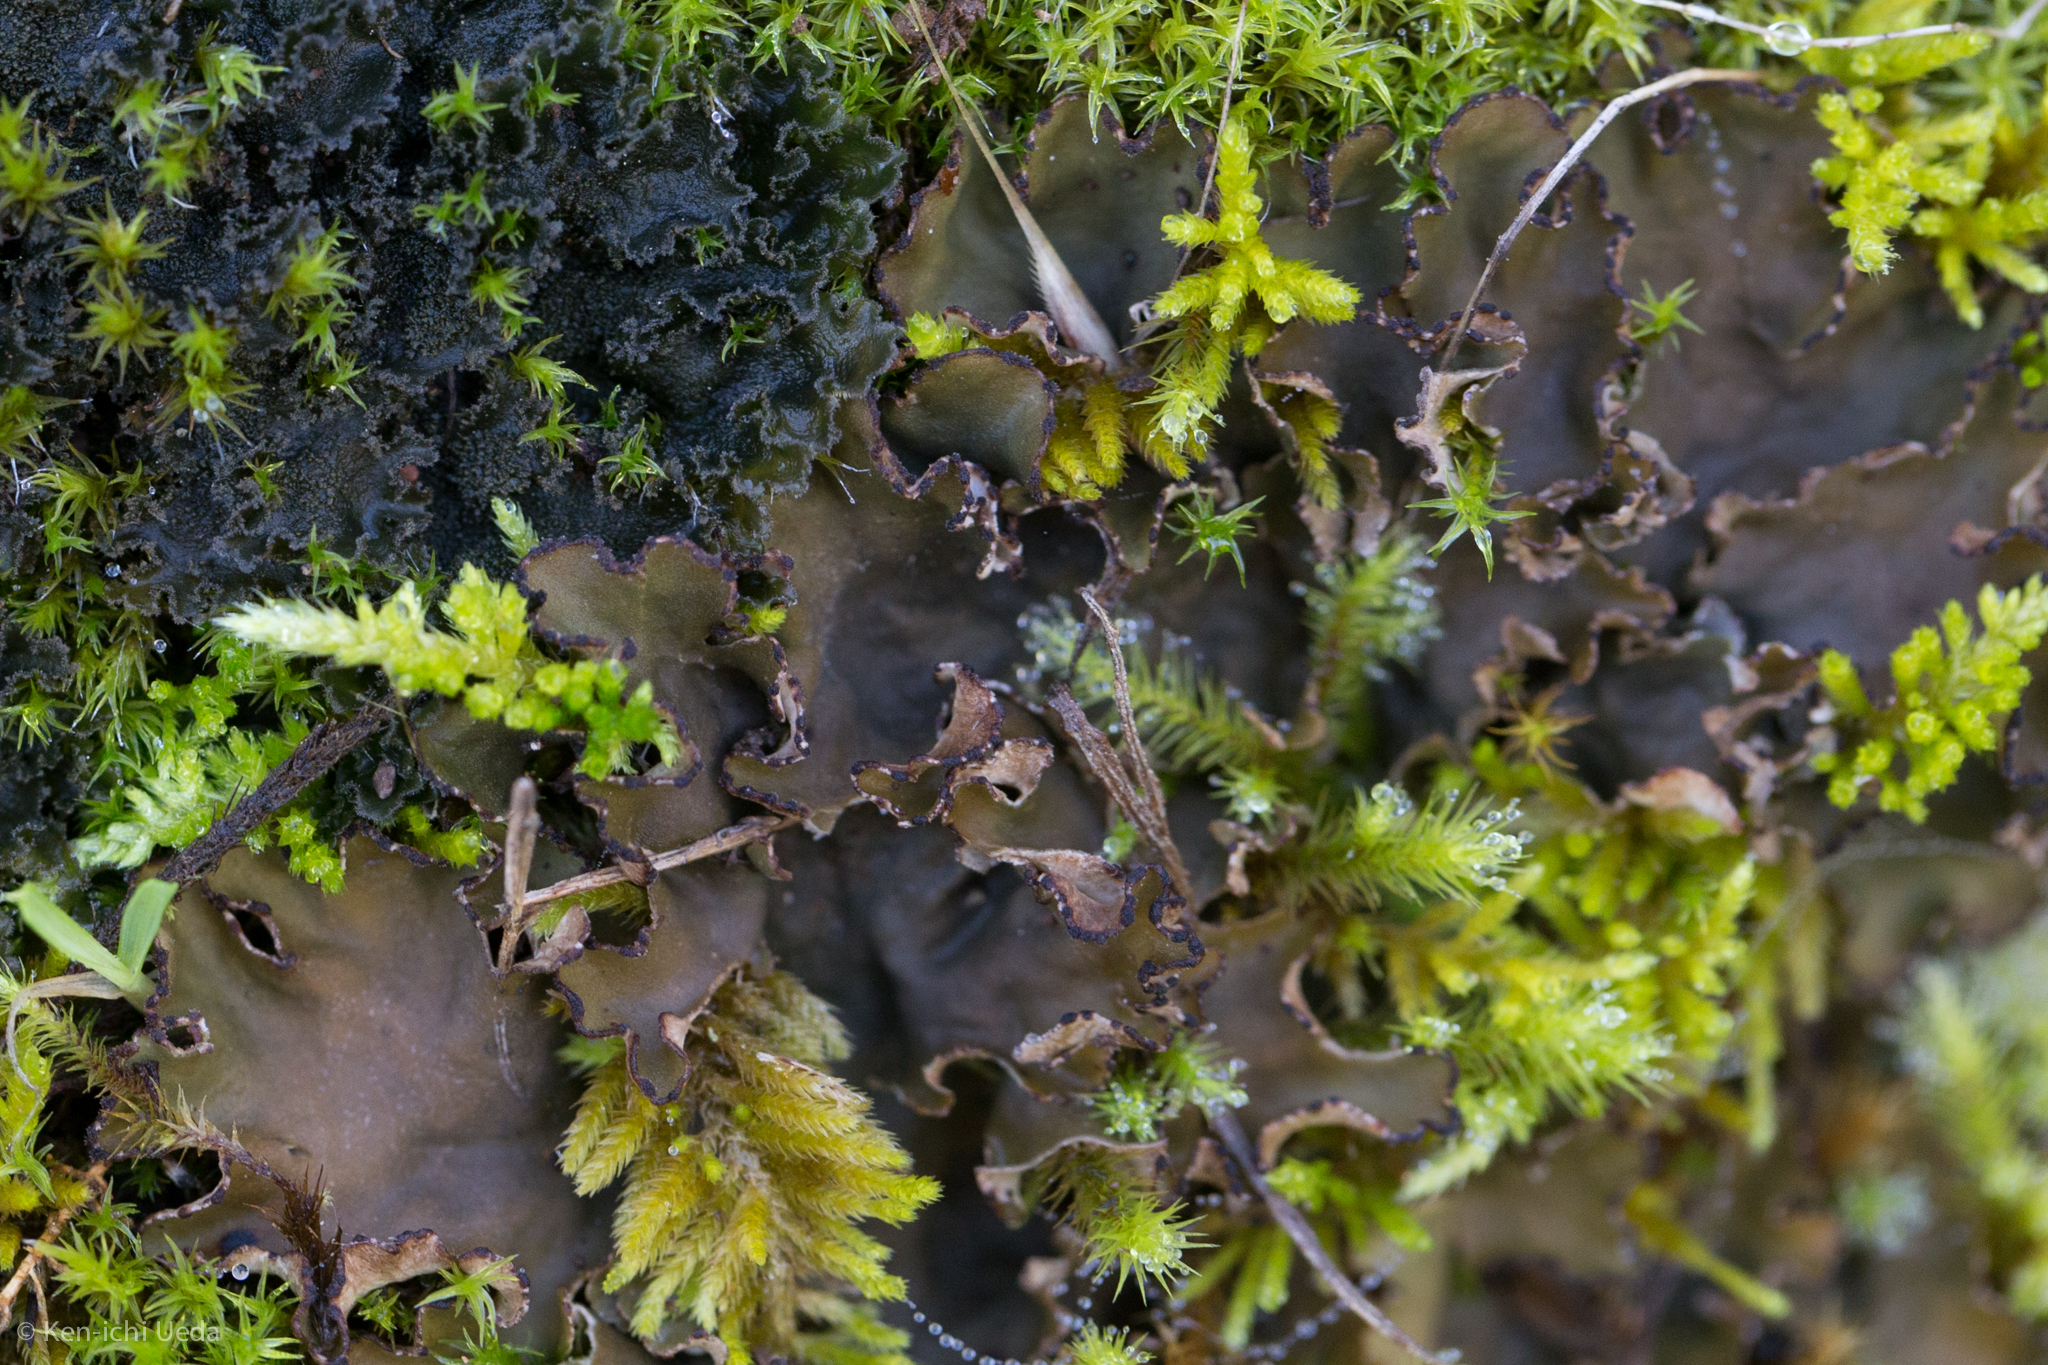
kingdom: Fungi
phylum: Ascomycota
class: Lecanoromycetes
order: Peltigerales
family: Peltigeraceae
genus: Peltigera
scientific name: Peltigera collina
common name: Gritty tree pelt lichen
